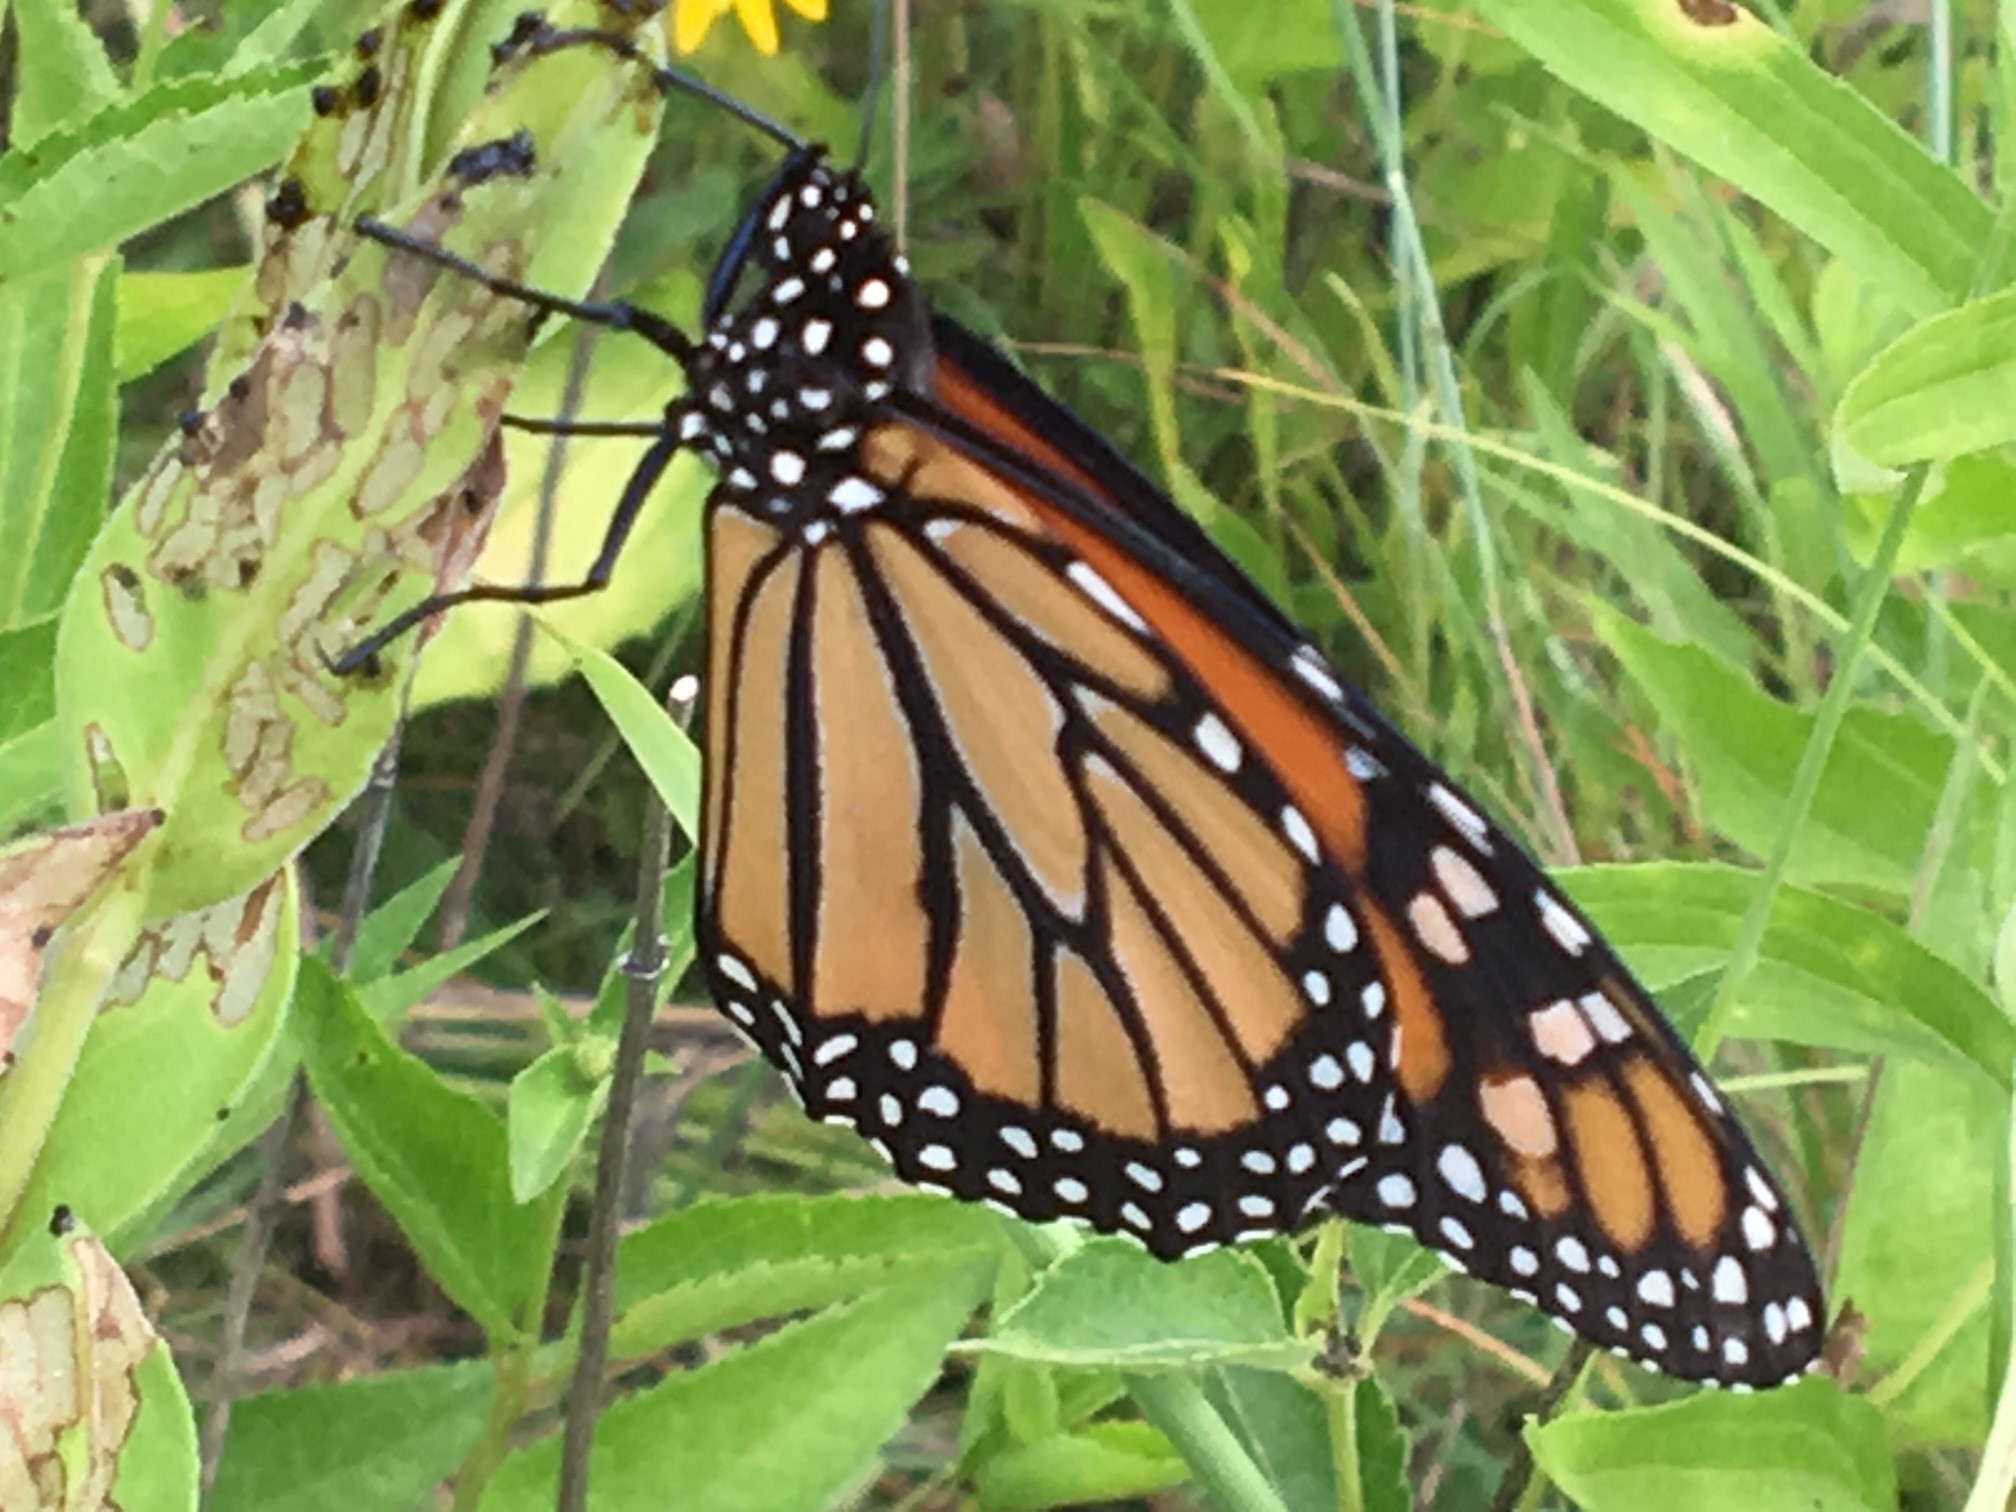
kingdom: Animalia
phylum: Arthropoda
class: Insecta
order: Lepidoptera
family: Nymphalidae
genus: Danaus
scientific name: Danaus plexippus
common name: Monarch
